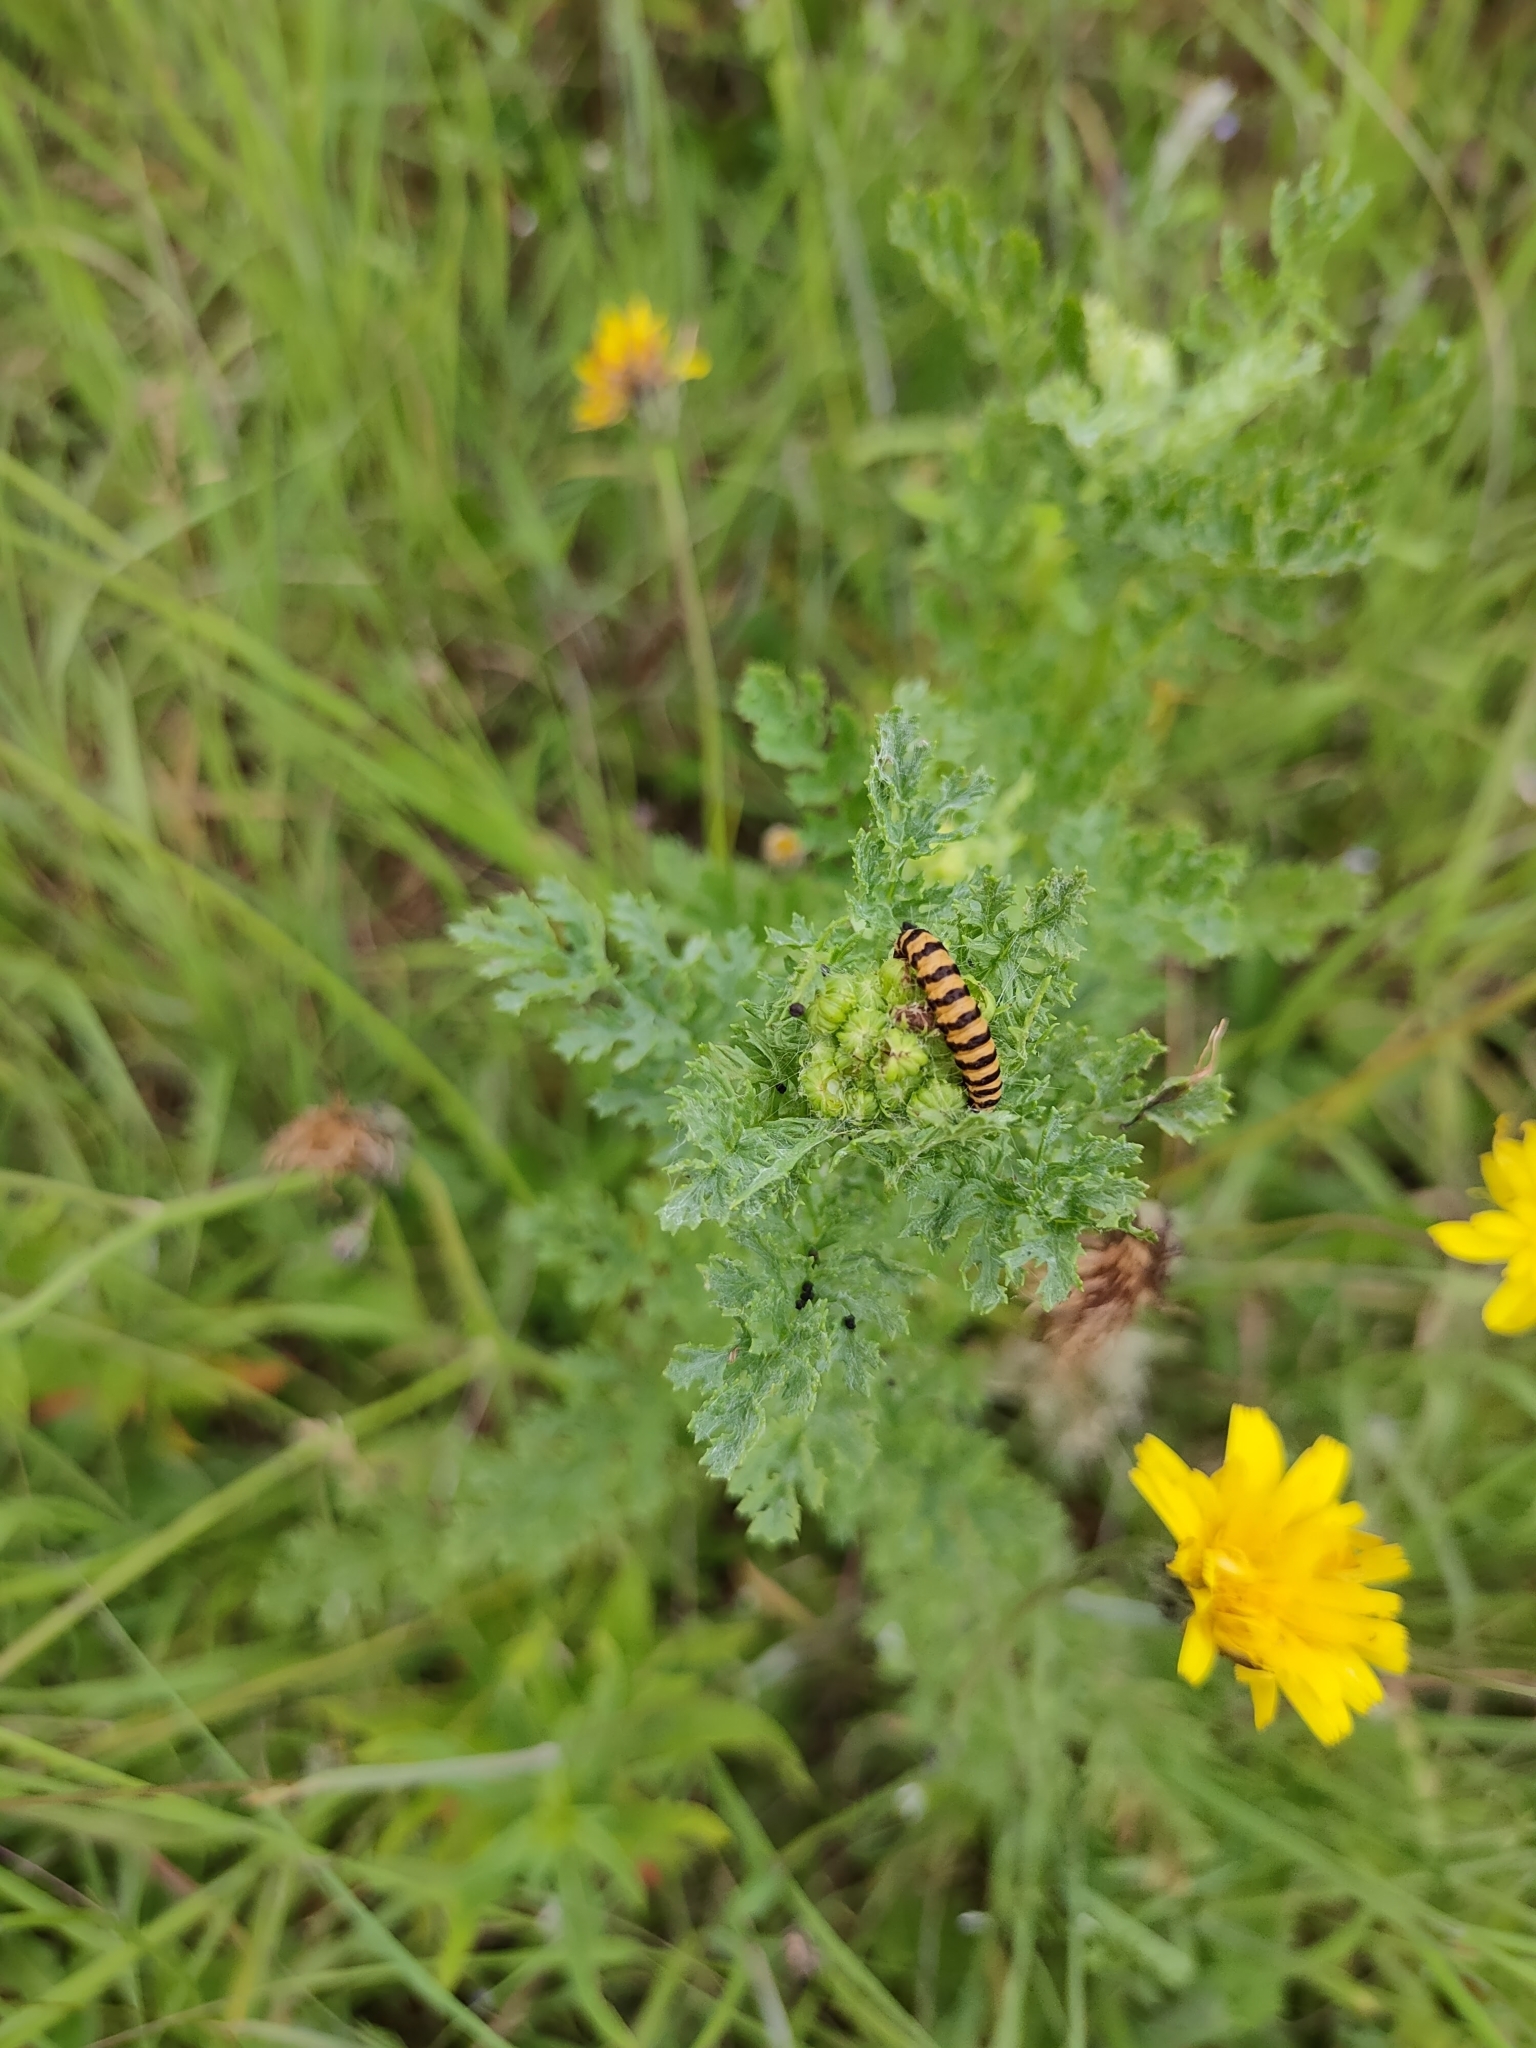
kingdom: Animalia
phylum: Arthropoda
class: Insecta
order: Lepidoptera
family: Erebidae
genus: Tyria
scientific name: Tyria jacobaeae
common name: Cinnabar
